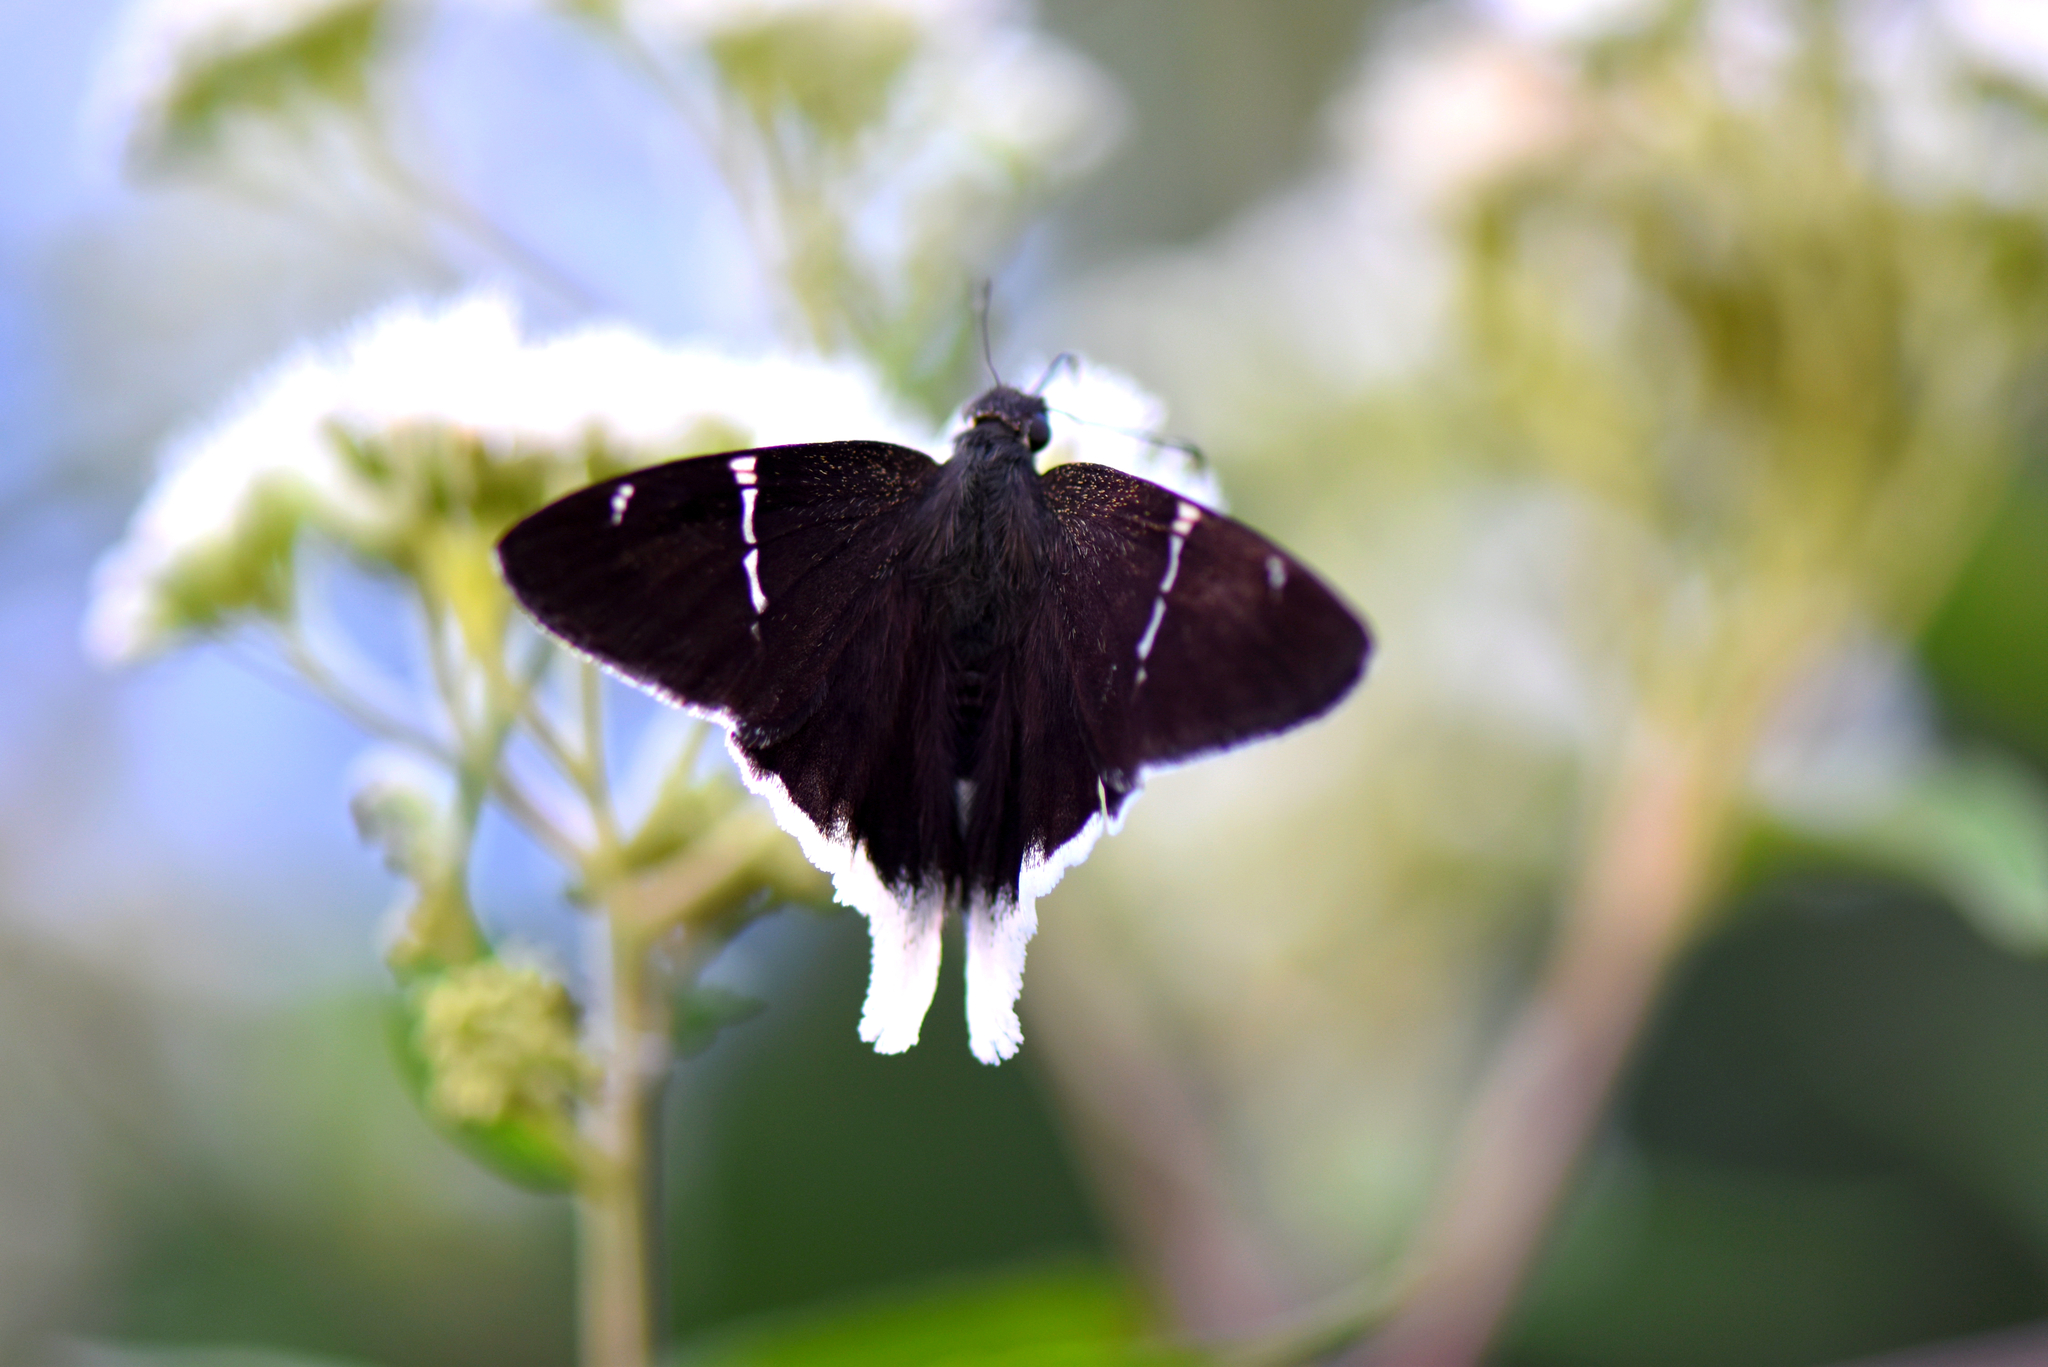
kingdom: Animalia
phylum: Arthropoda
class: Insecta
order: Lepidoptera
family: Hesperiidae
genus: Achalarus
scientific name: Achalarus
